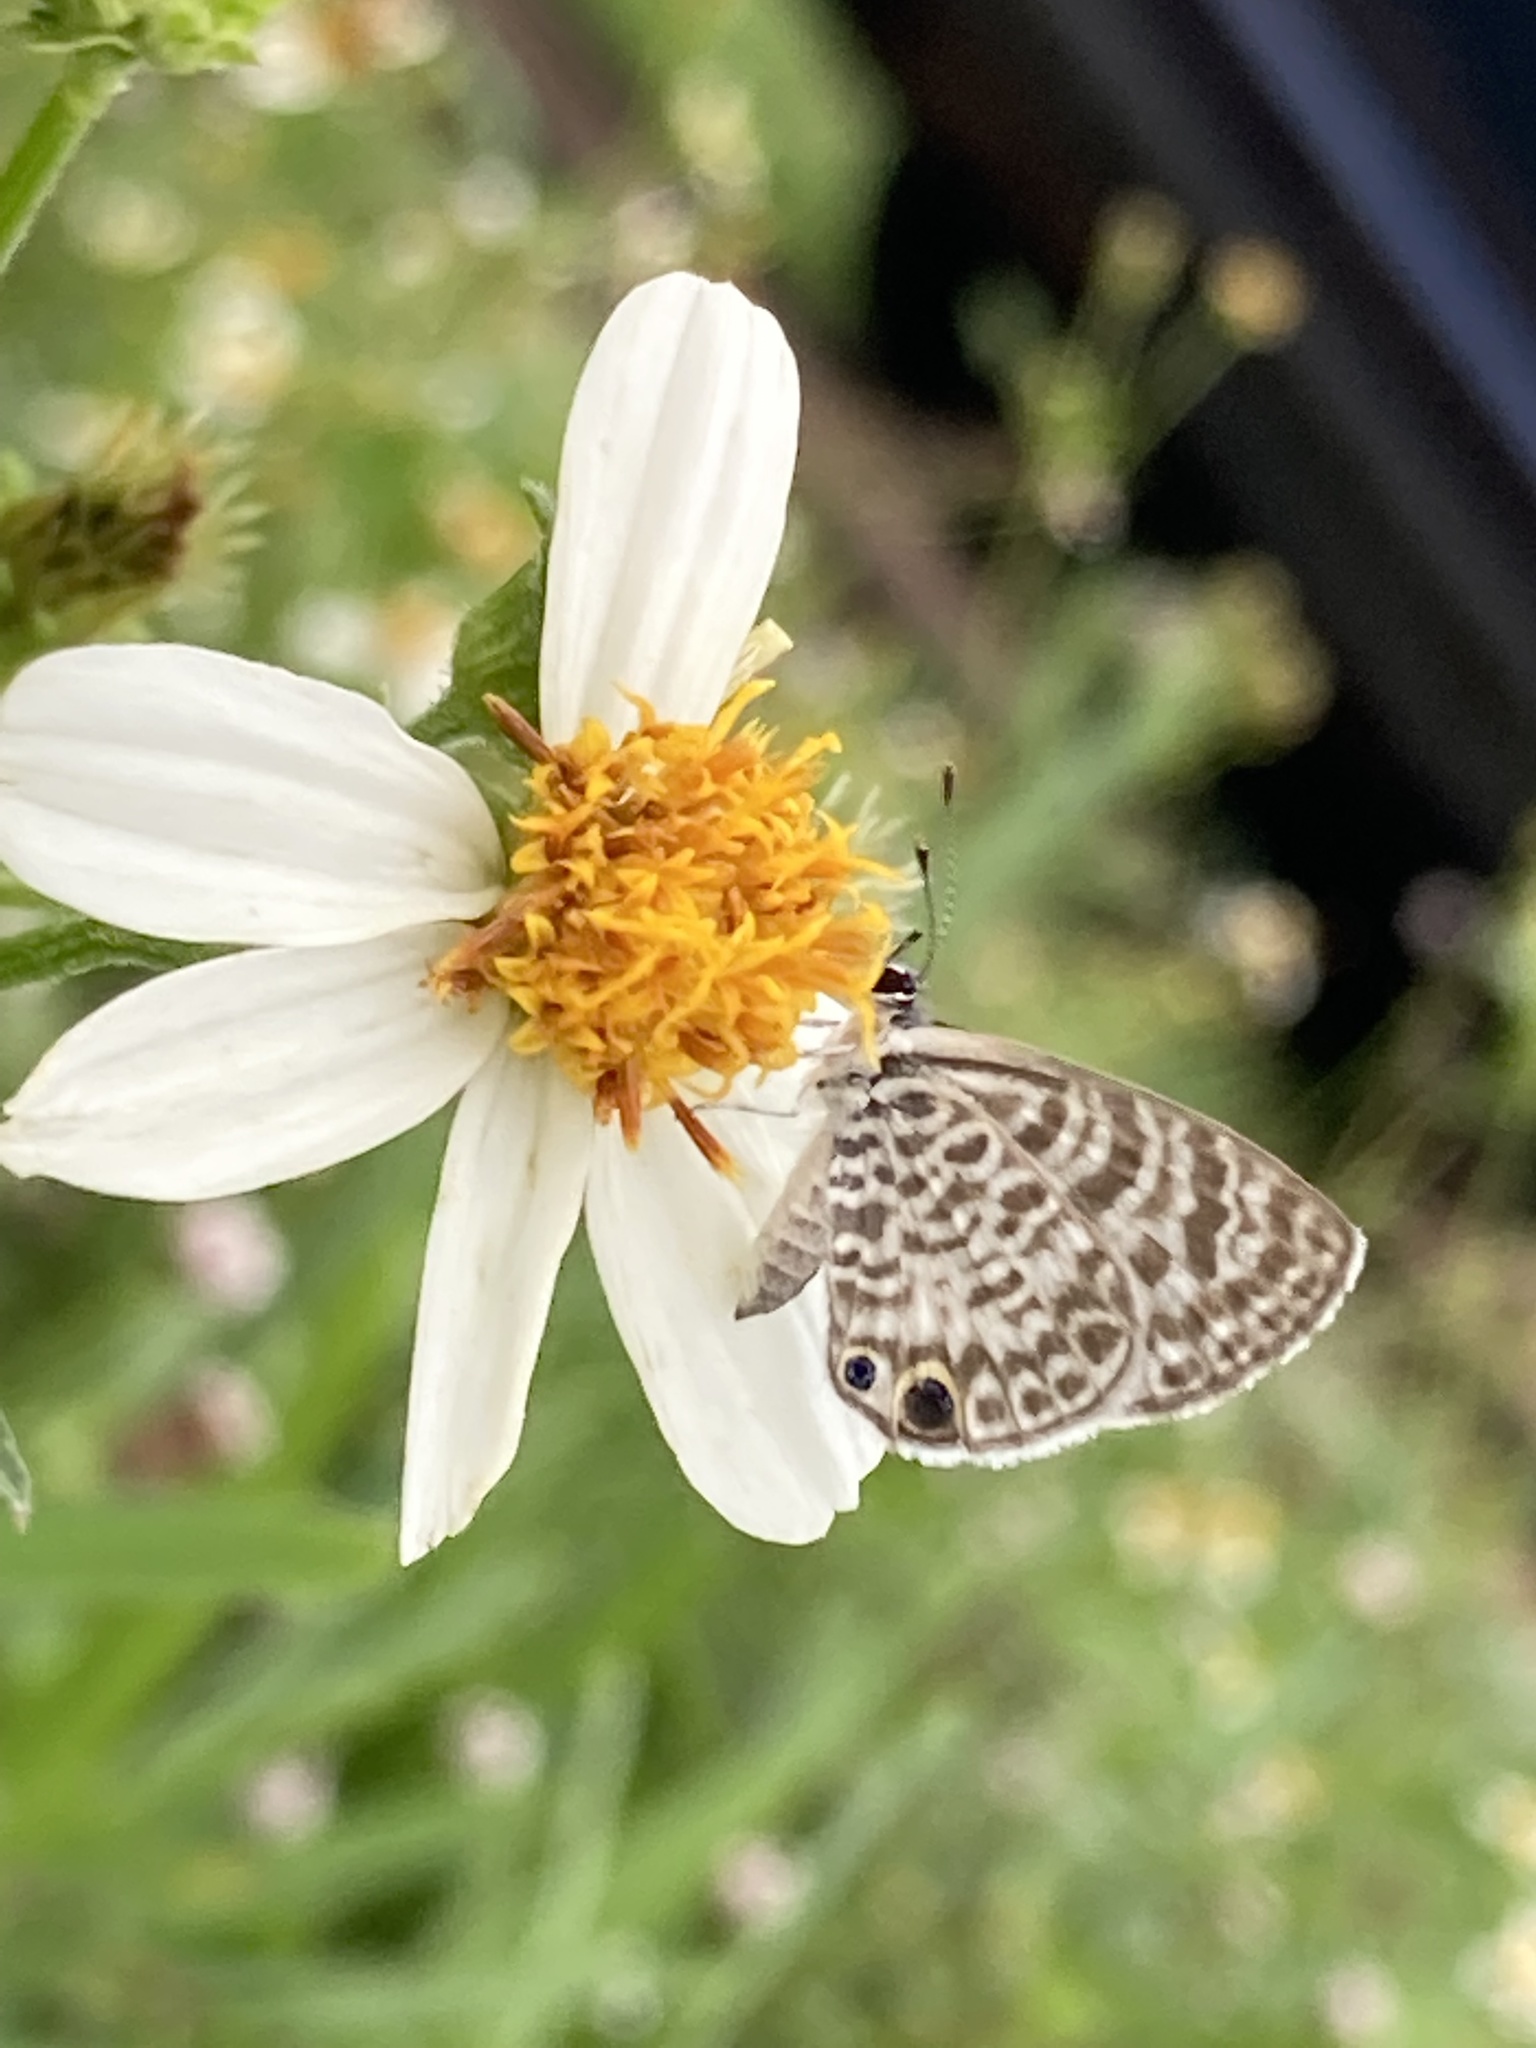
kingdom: Animalia
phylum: Arthropoda
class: Insecta
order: Lepidoptera
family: Lycaenidae
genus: Leptotes
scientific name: Leptotes cassius
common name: Cassius blue
